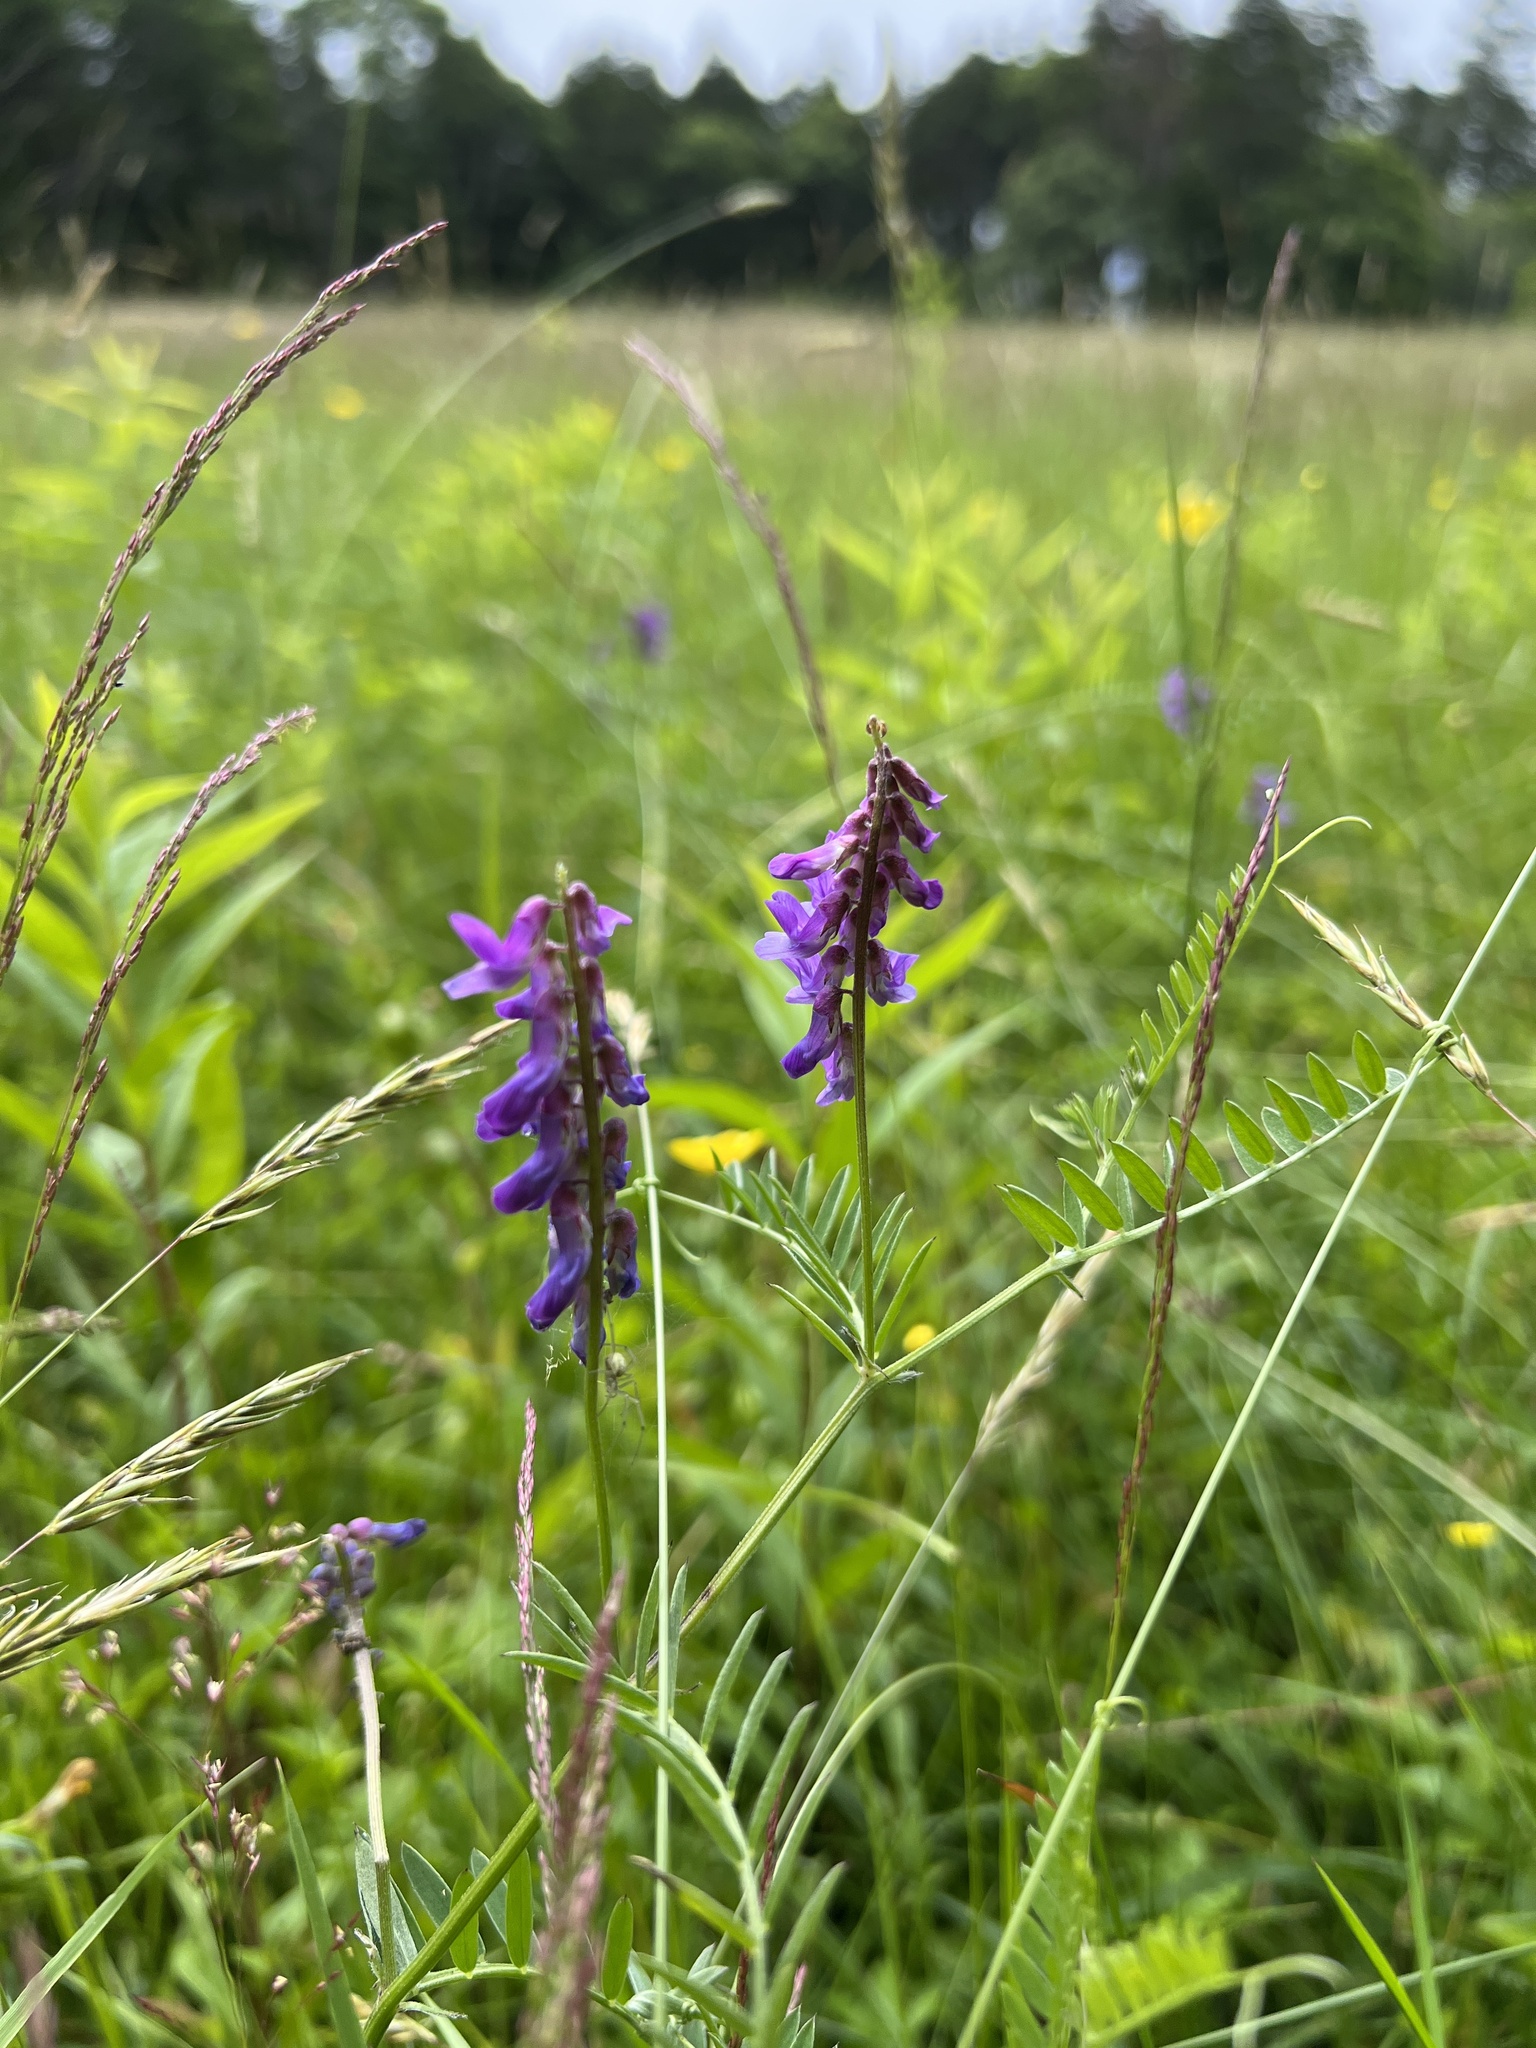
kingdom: Plantae
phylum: Tracheophyta
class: Magnoliopsida
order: Fabales
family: Fabaceae
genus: Vicia
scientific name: Vicia cracca
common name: Bird vetch
